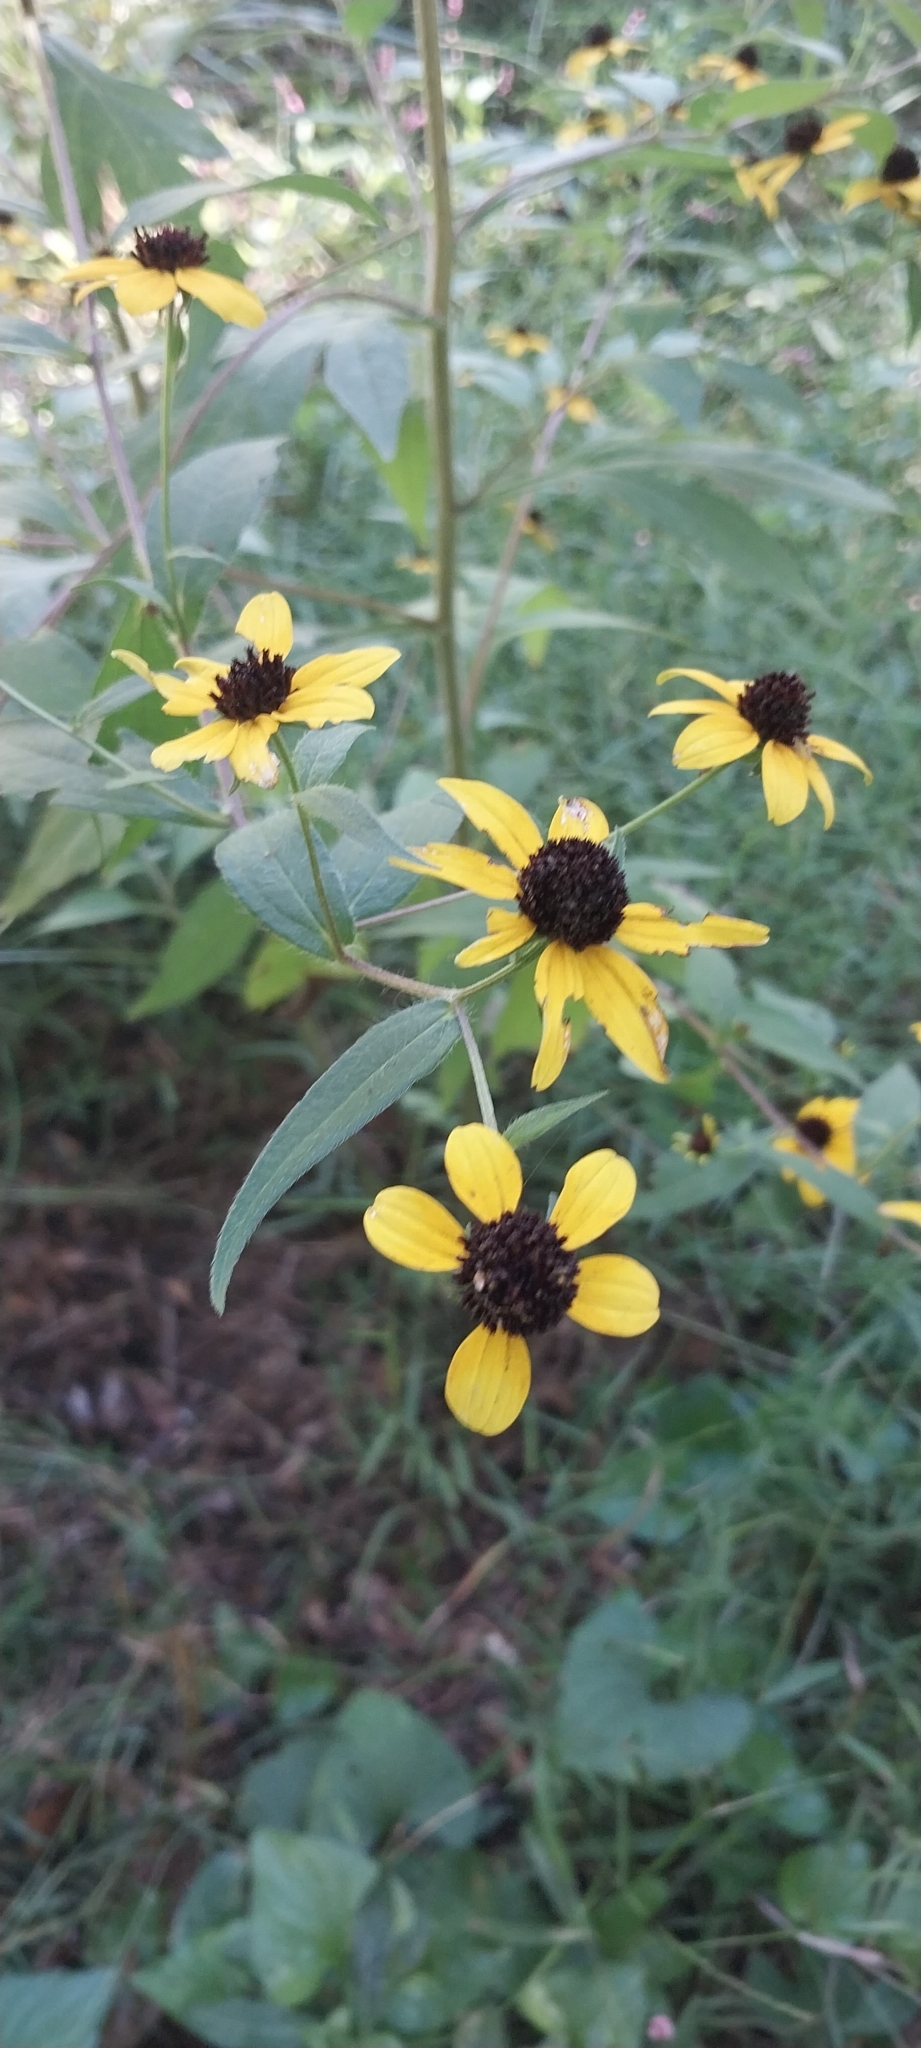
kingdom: Plantae
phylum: Tracheophyta
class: Magnoliopsida
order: Asterales
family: Asteraceae
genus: Rudbeckia
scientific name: Rudbeckia triloba
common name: Thin-leaved coneflower
